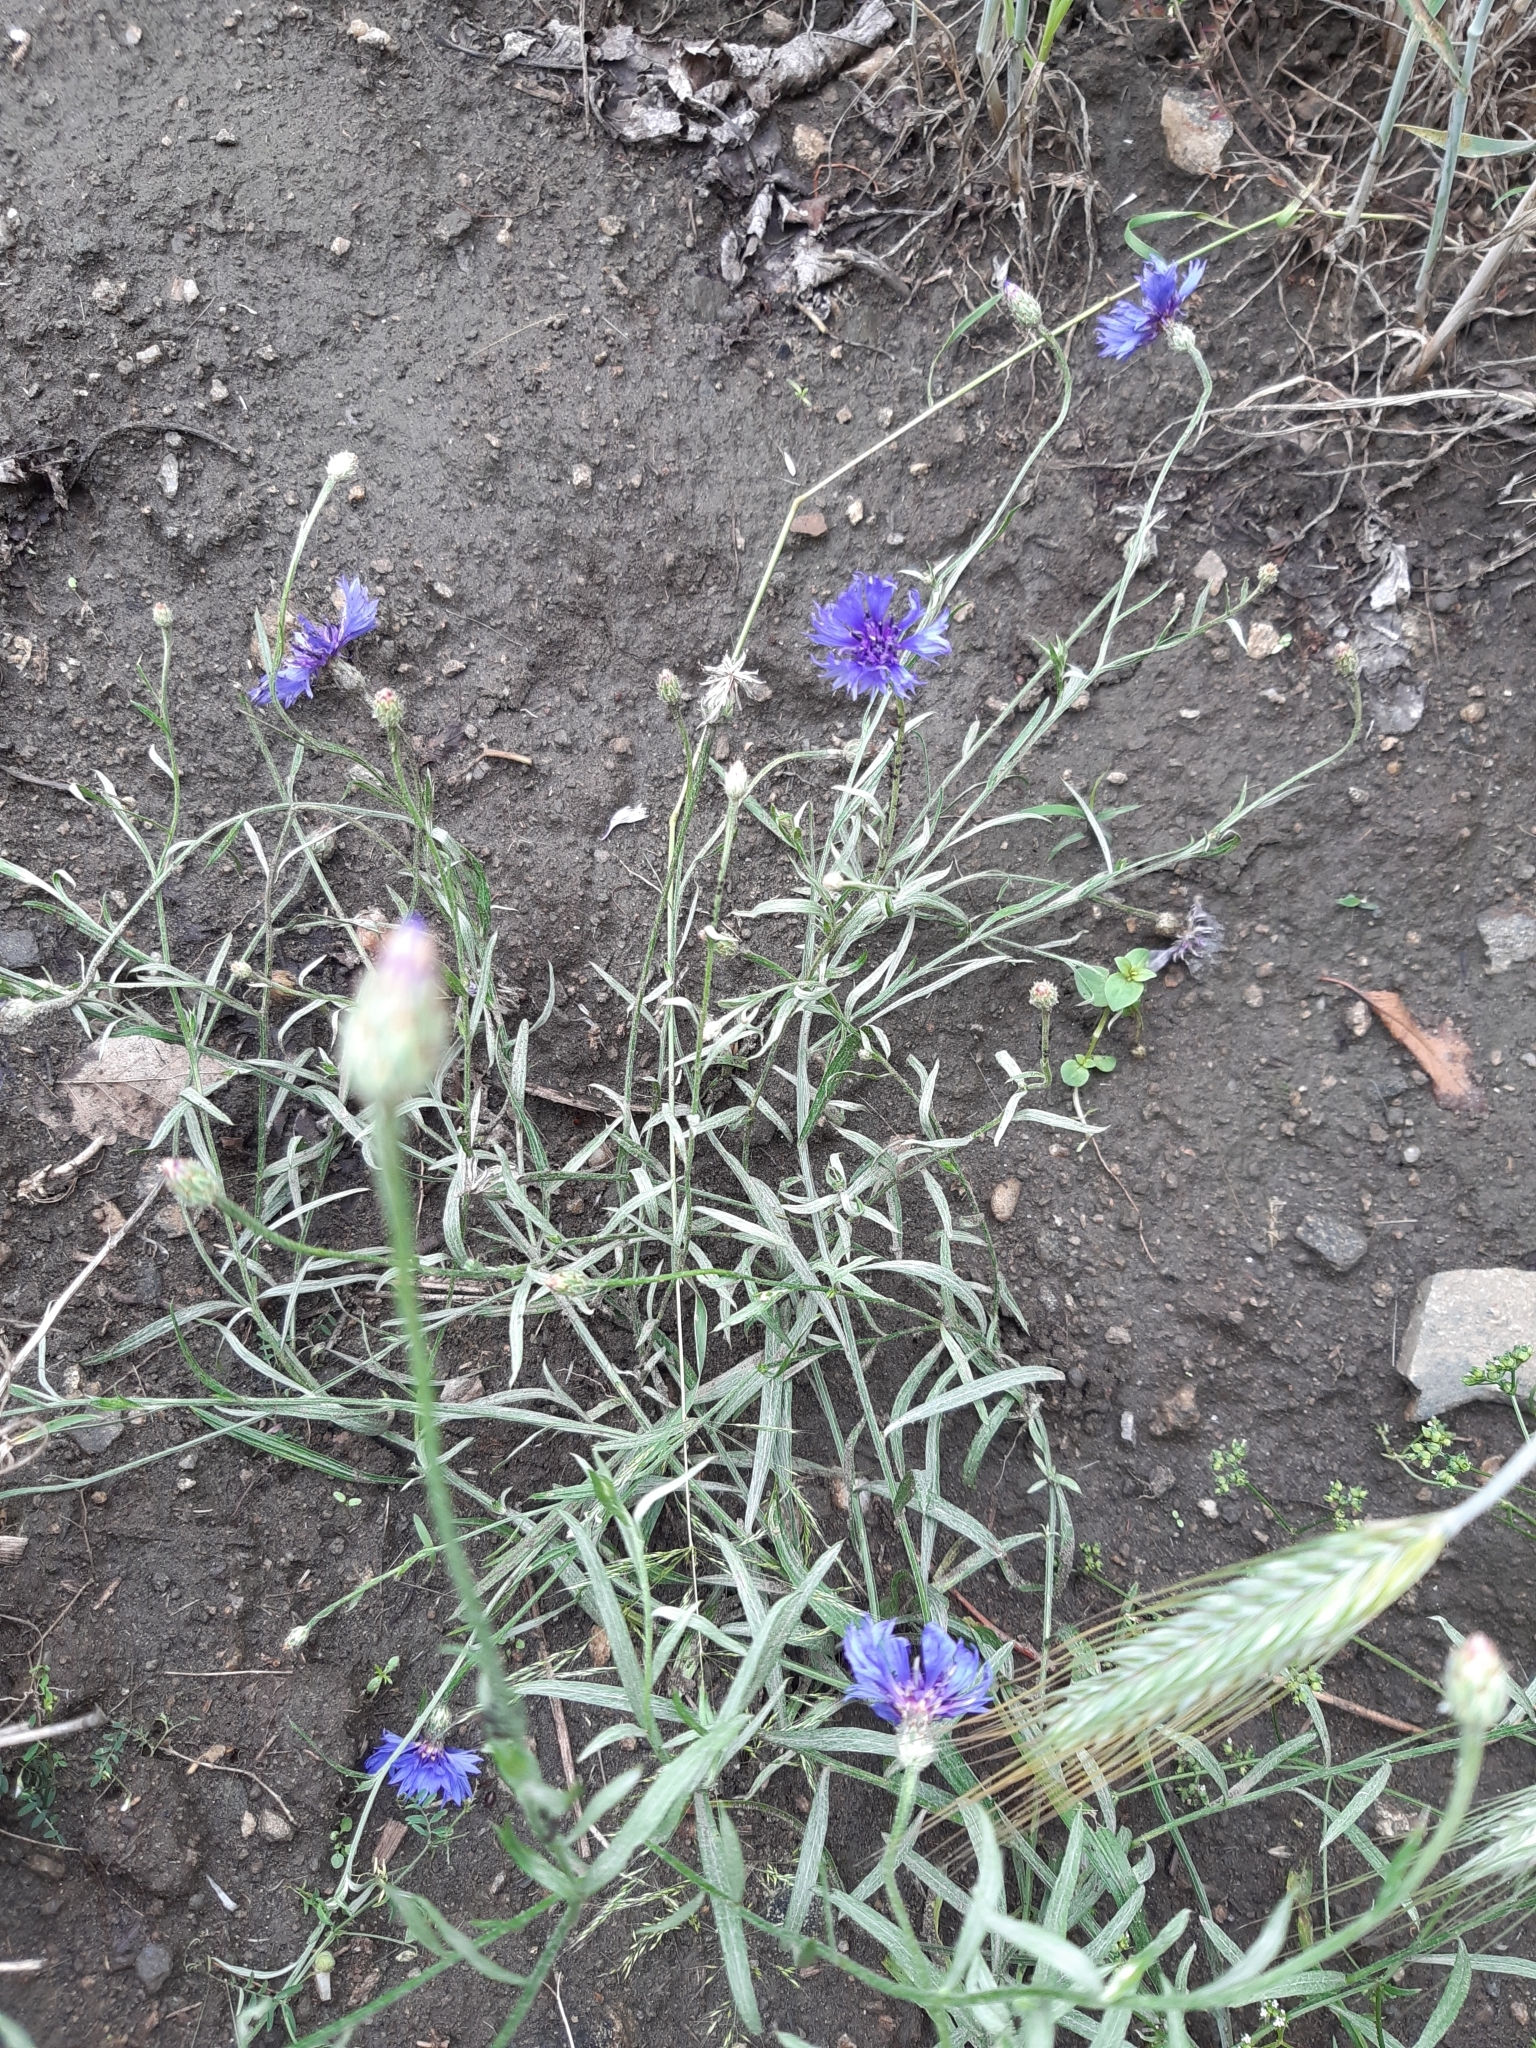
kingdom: Plantae
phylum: Tracheophyta
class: Magnoliopsida
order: Asterales
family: Asteraceae
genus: Centaurea
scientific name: Centaurea cyanus
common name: Cornflower
